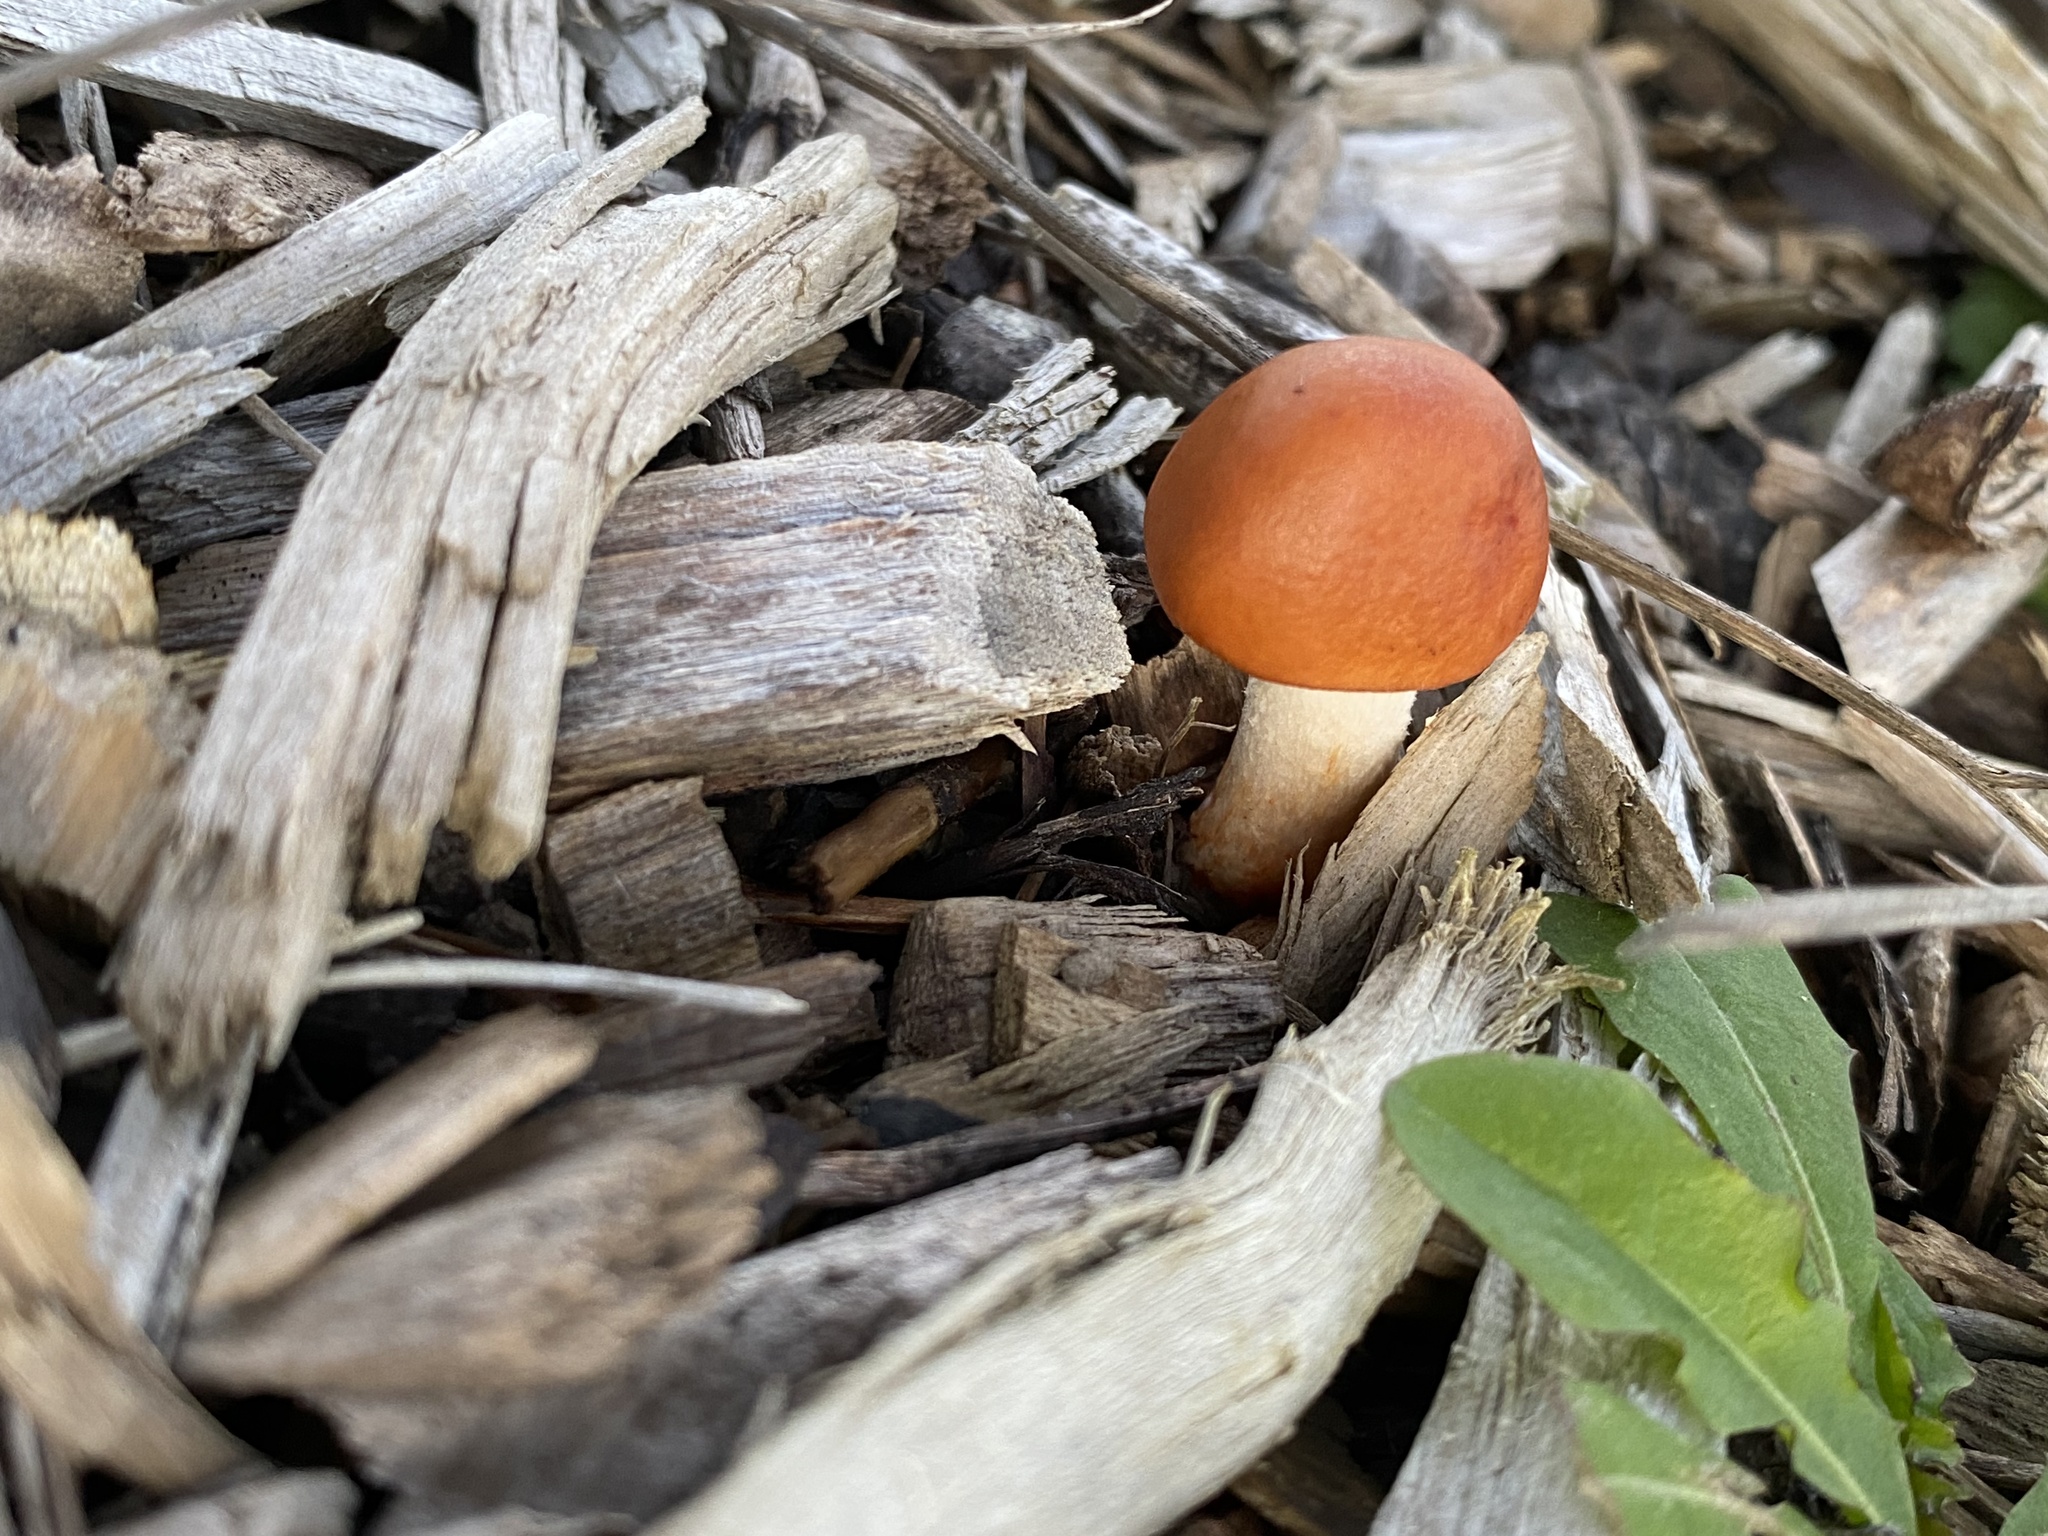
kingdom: Fungi
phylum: Basidiomycota
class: Agaricomycetes
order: Agaricales
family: Strophariaceae
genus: Leratiomyces
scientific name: Leratiomyces ceres
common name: Redlead roundhead
